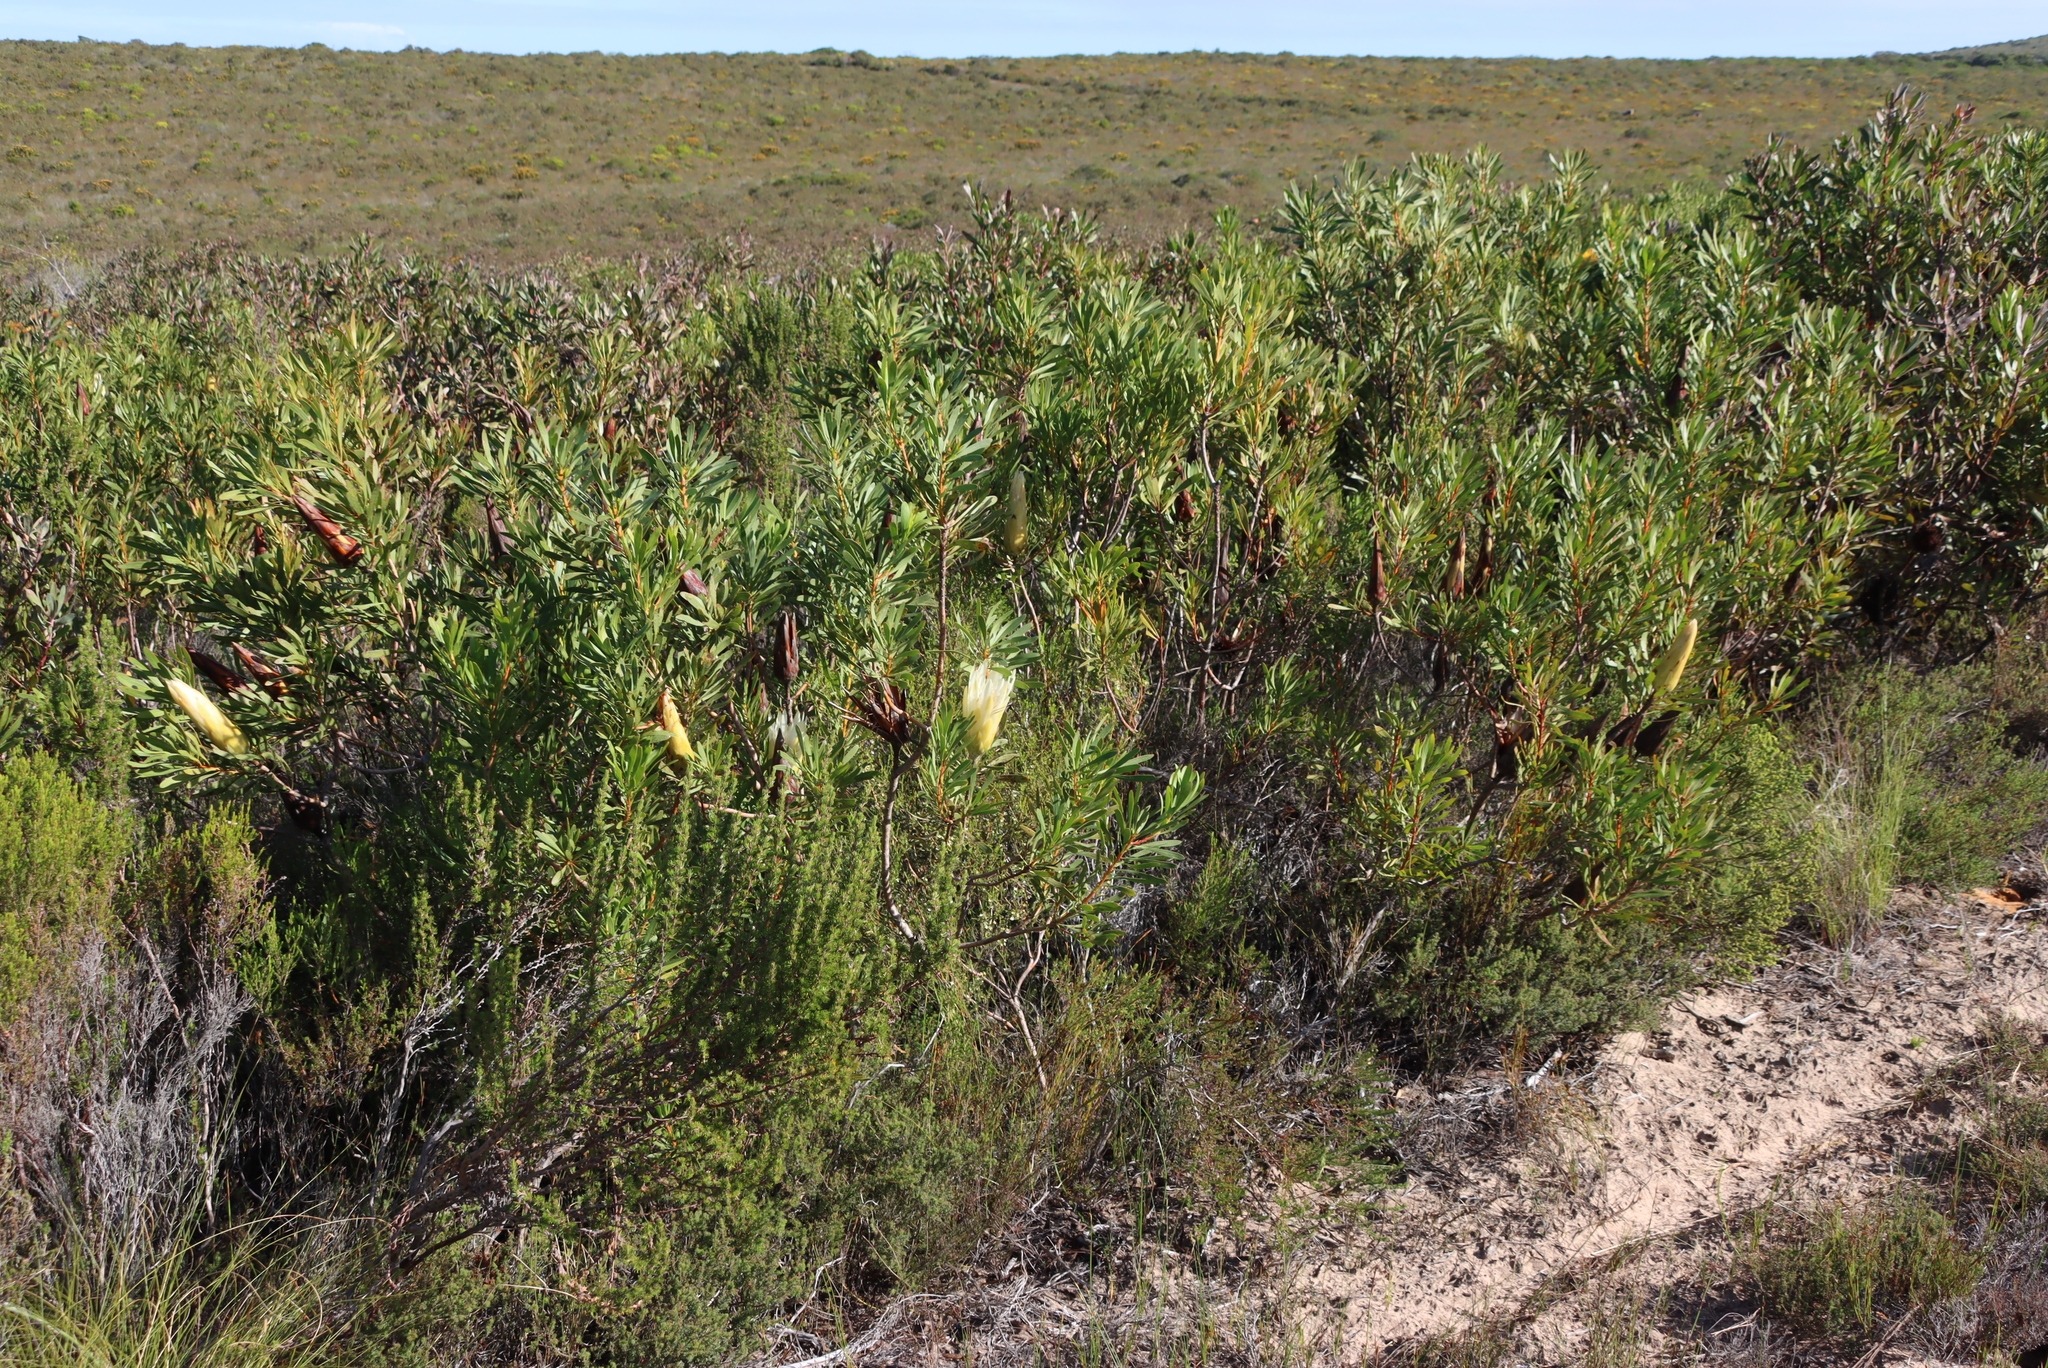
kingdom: Plantae
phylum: Tracheophyta
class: Magnoliopsida
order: Proteales
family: Proteaceae
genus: Protea
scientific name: Protea repens
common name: Sugarbush
